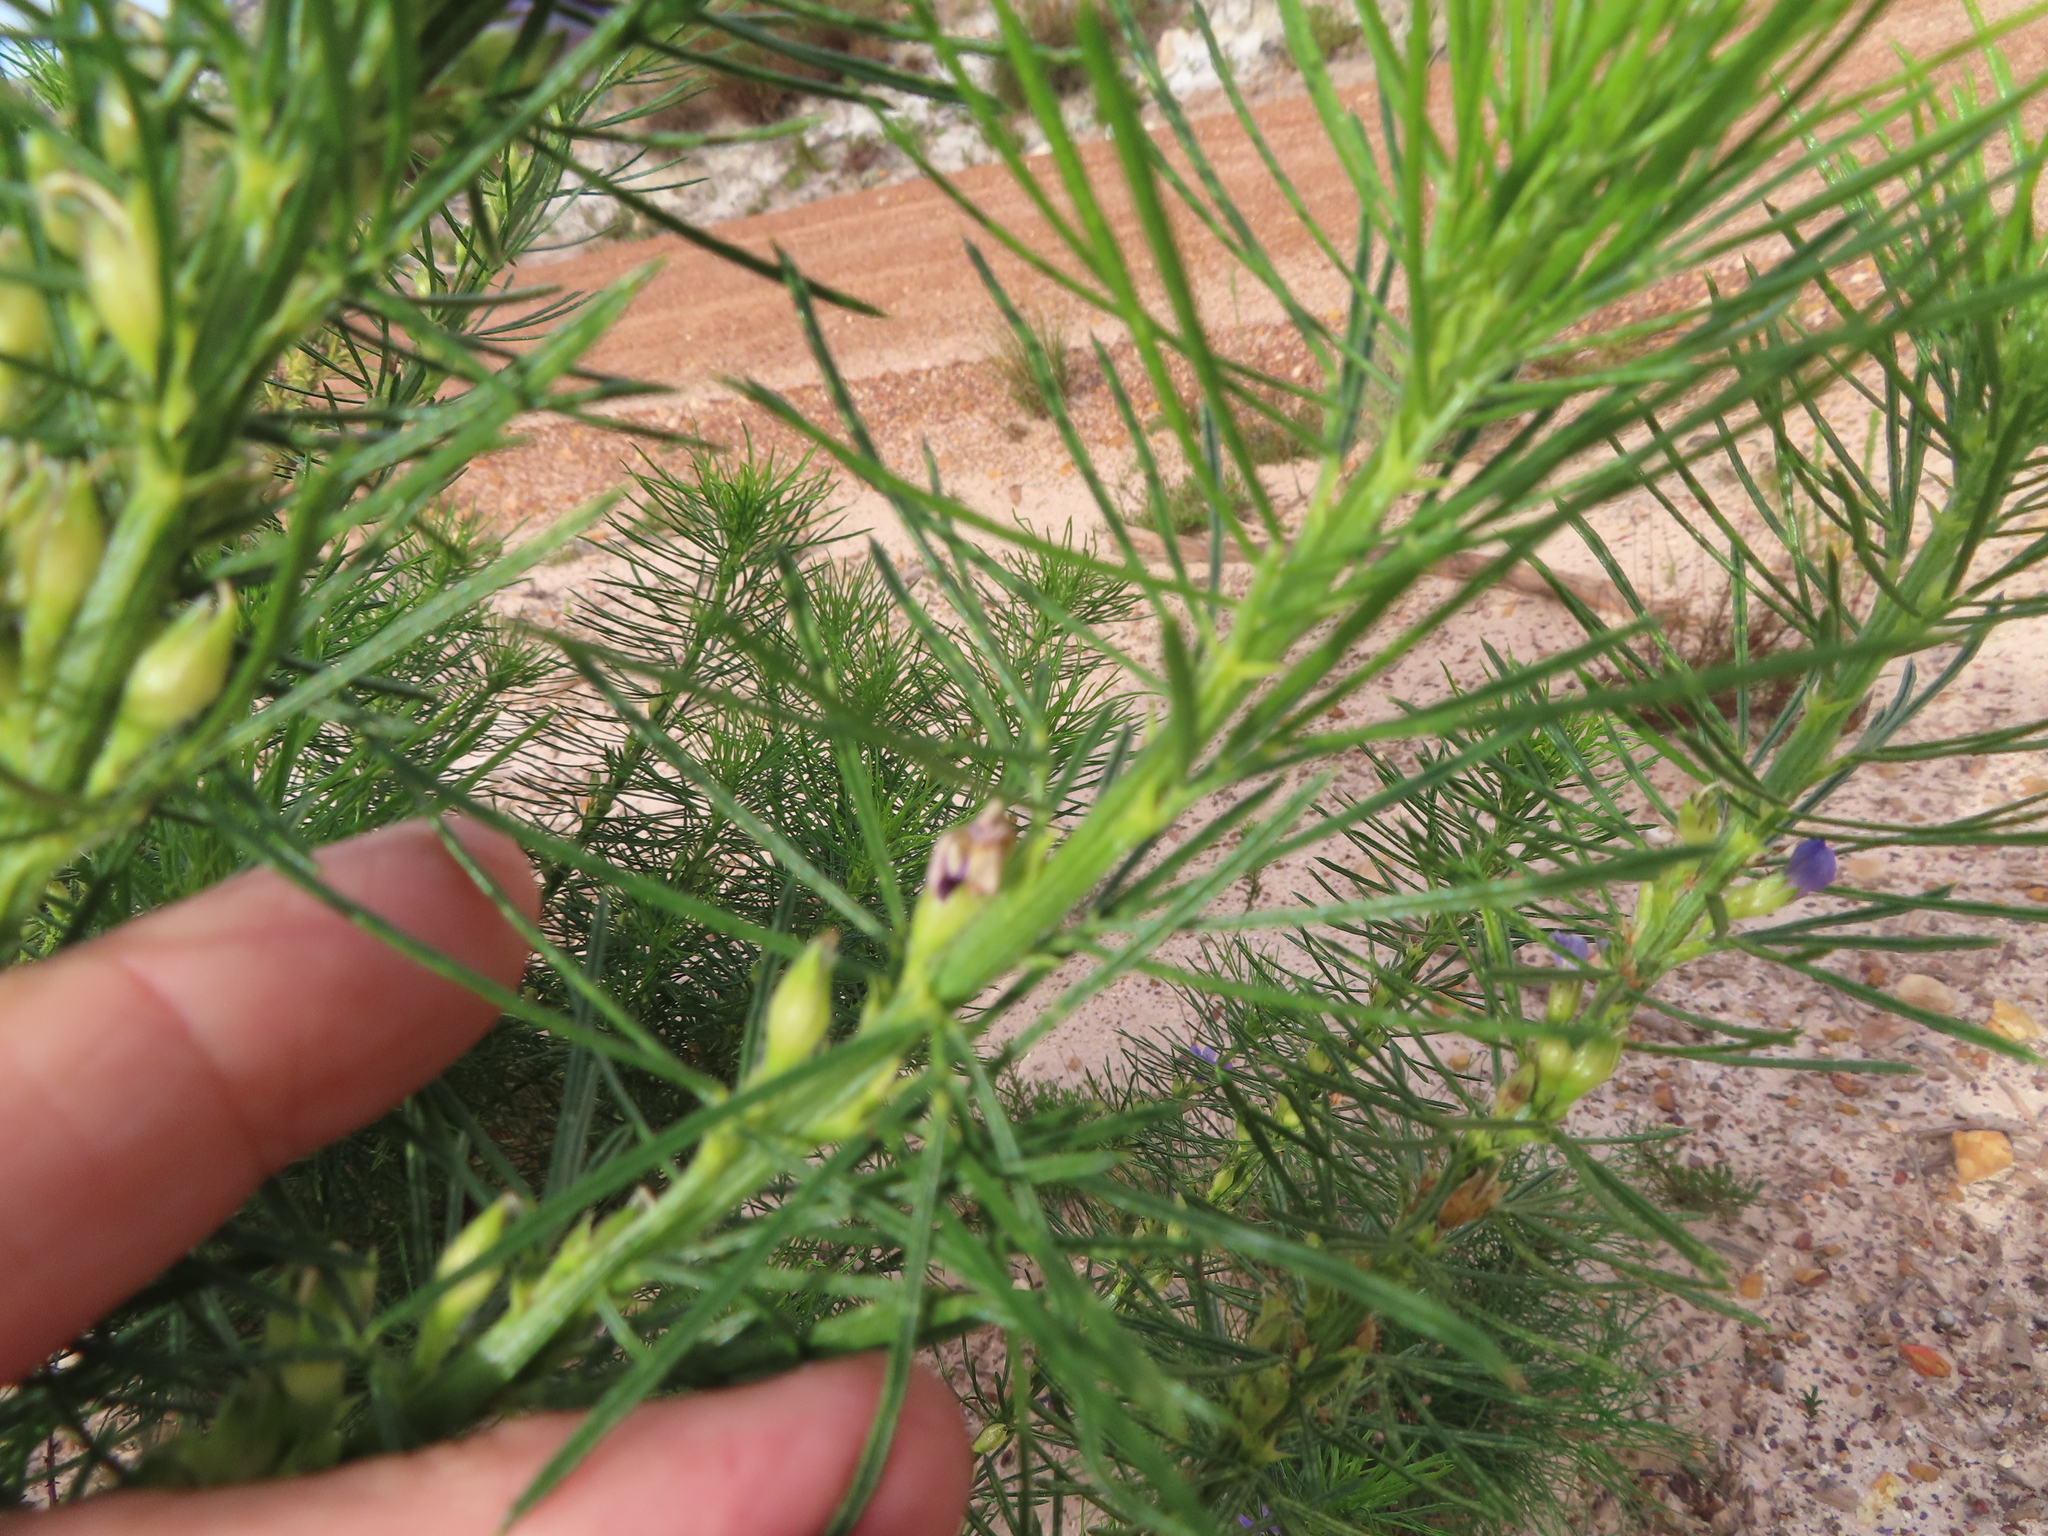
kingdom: Plantae
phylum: Tracheophyta
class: Magnoliopsida
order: Fabales
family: Fabaceae
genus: Psoralea
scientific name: Psoralea pinnata
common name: African scurfpea
